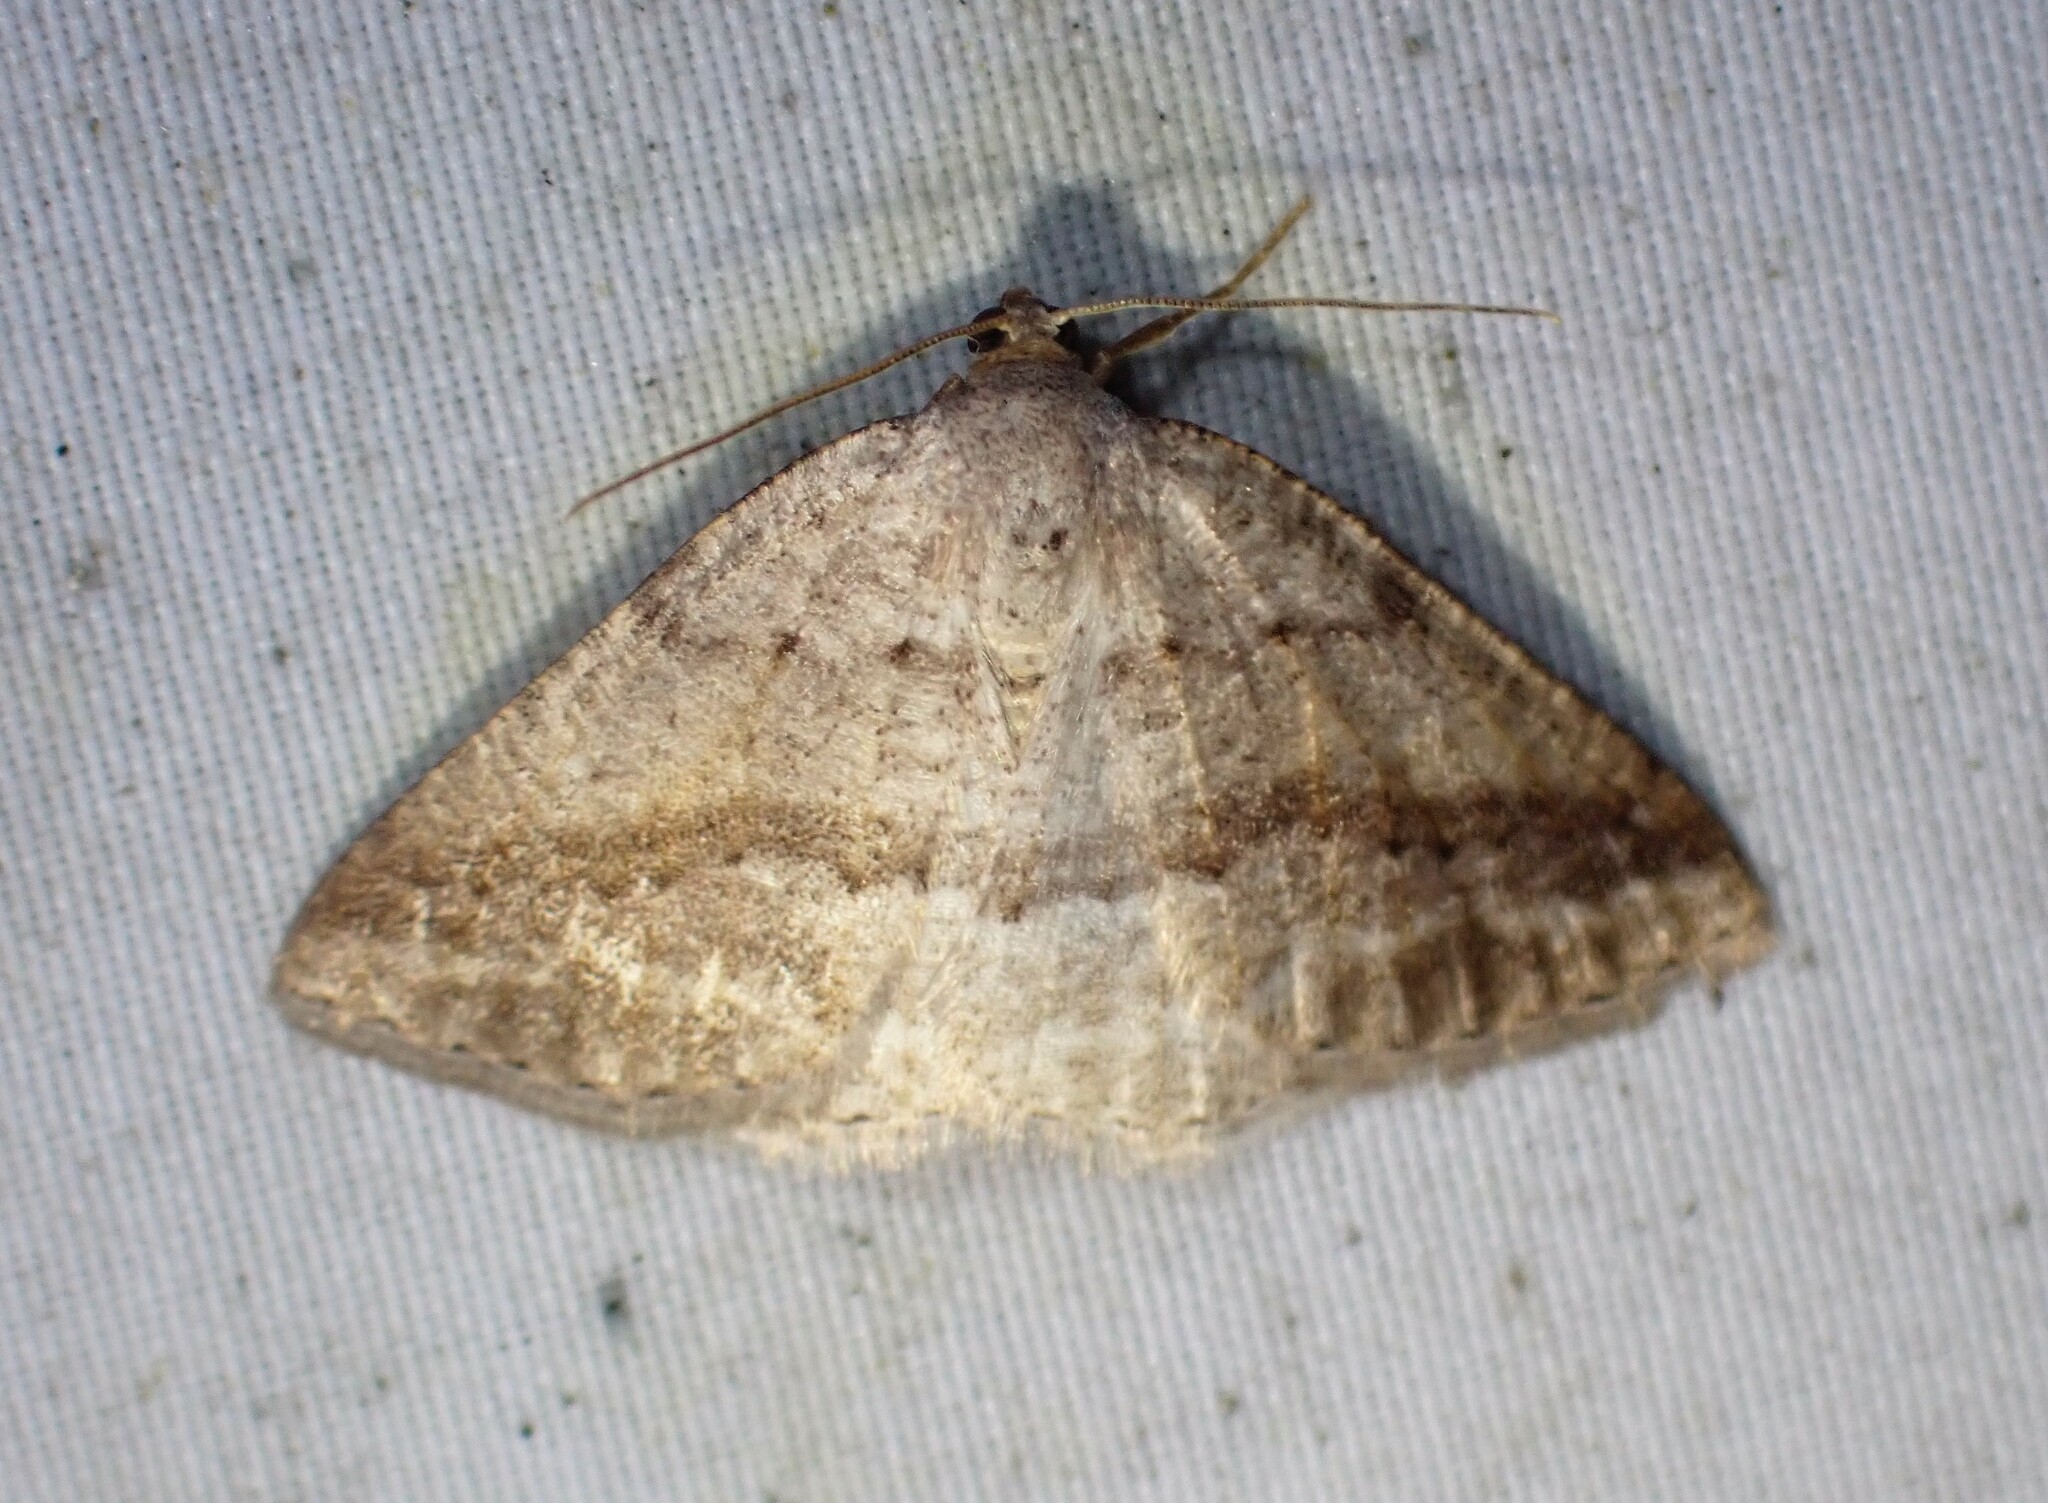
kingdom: Animalia
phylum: Arthropoda
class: Insecta
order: Lepidoptera
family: Geometridae
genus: Tacparia
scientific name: Tacparia detersata
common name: Pale alder moth
